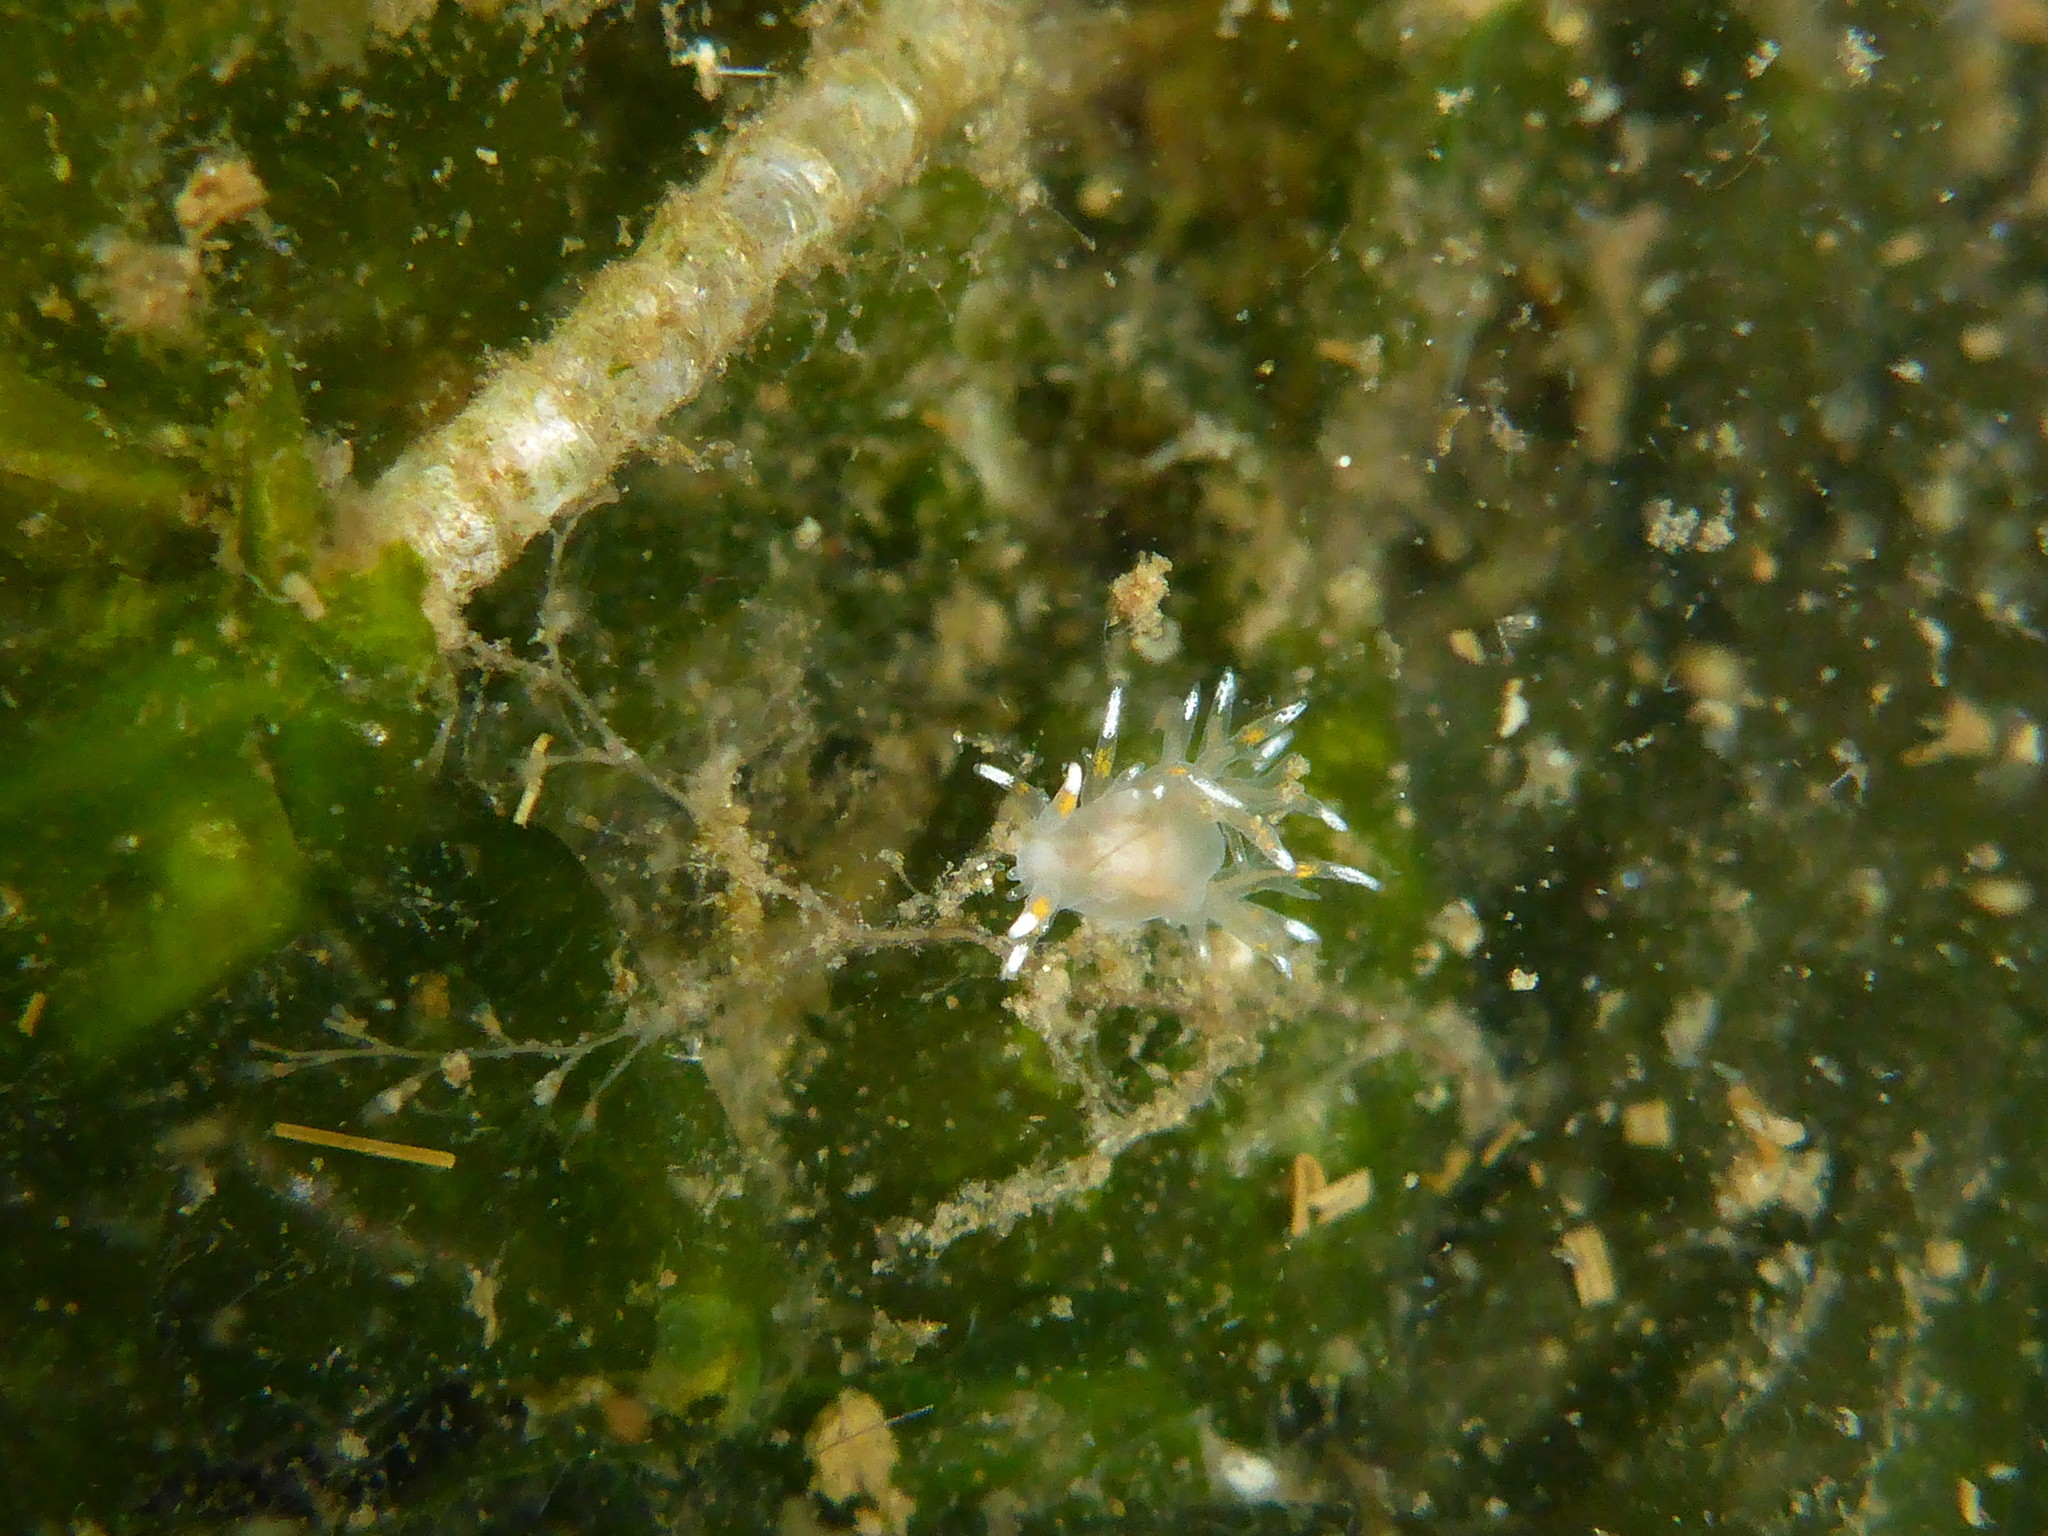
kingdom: Animalia
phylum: Mollusca
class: Gastropoda
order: Nudibranchia
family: Dendronotidae
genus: Dendronotus
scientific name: Dendronotus iris
